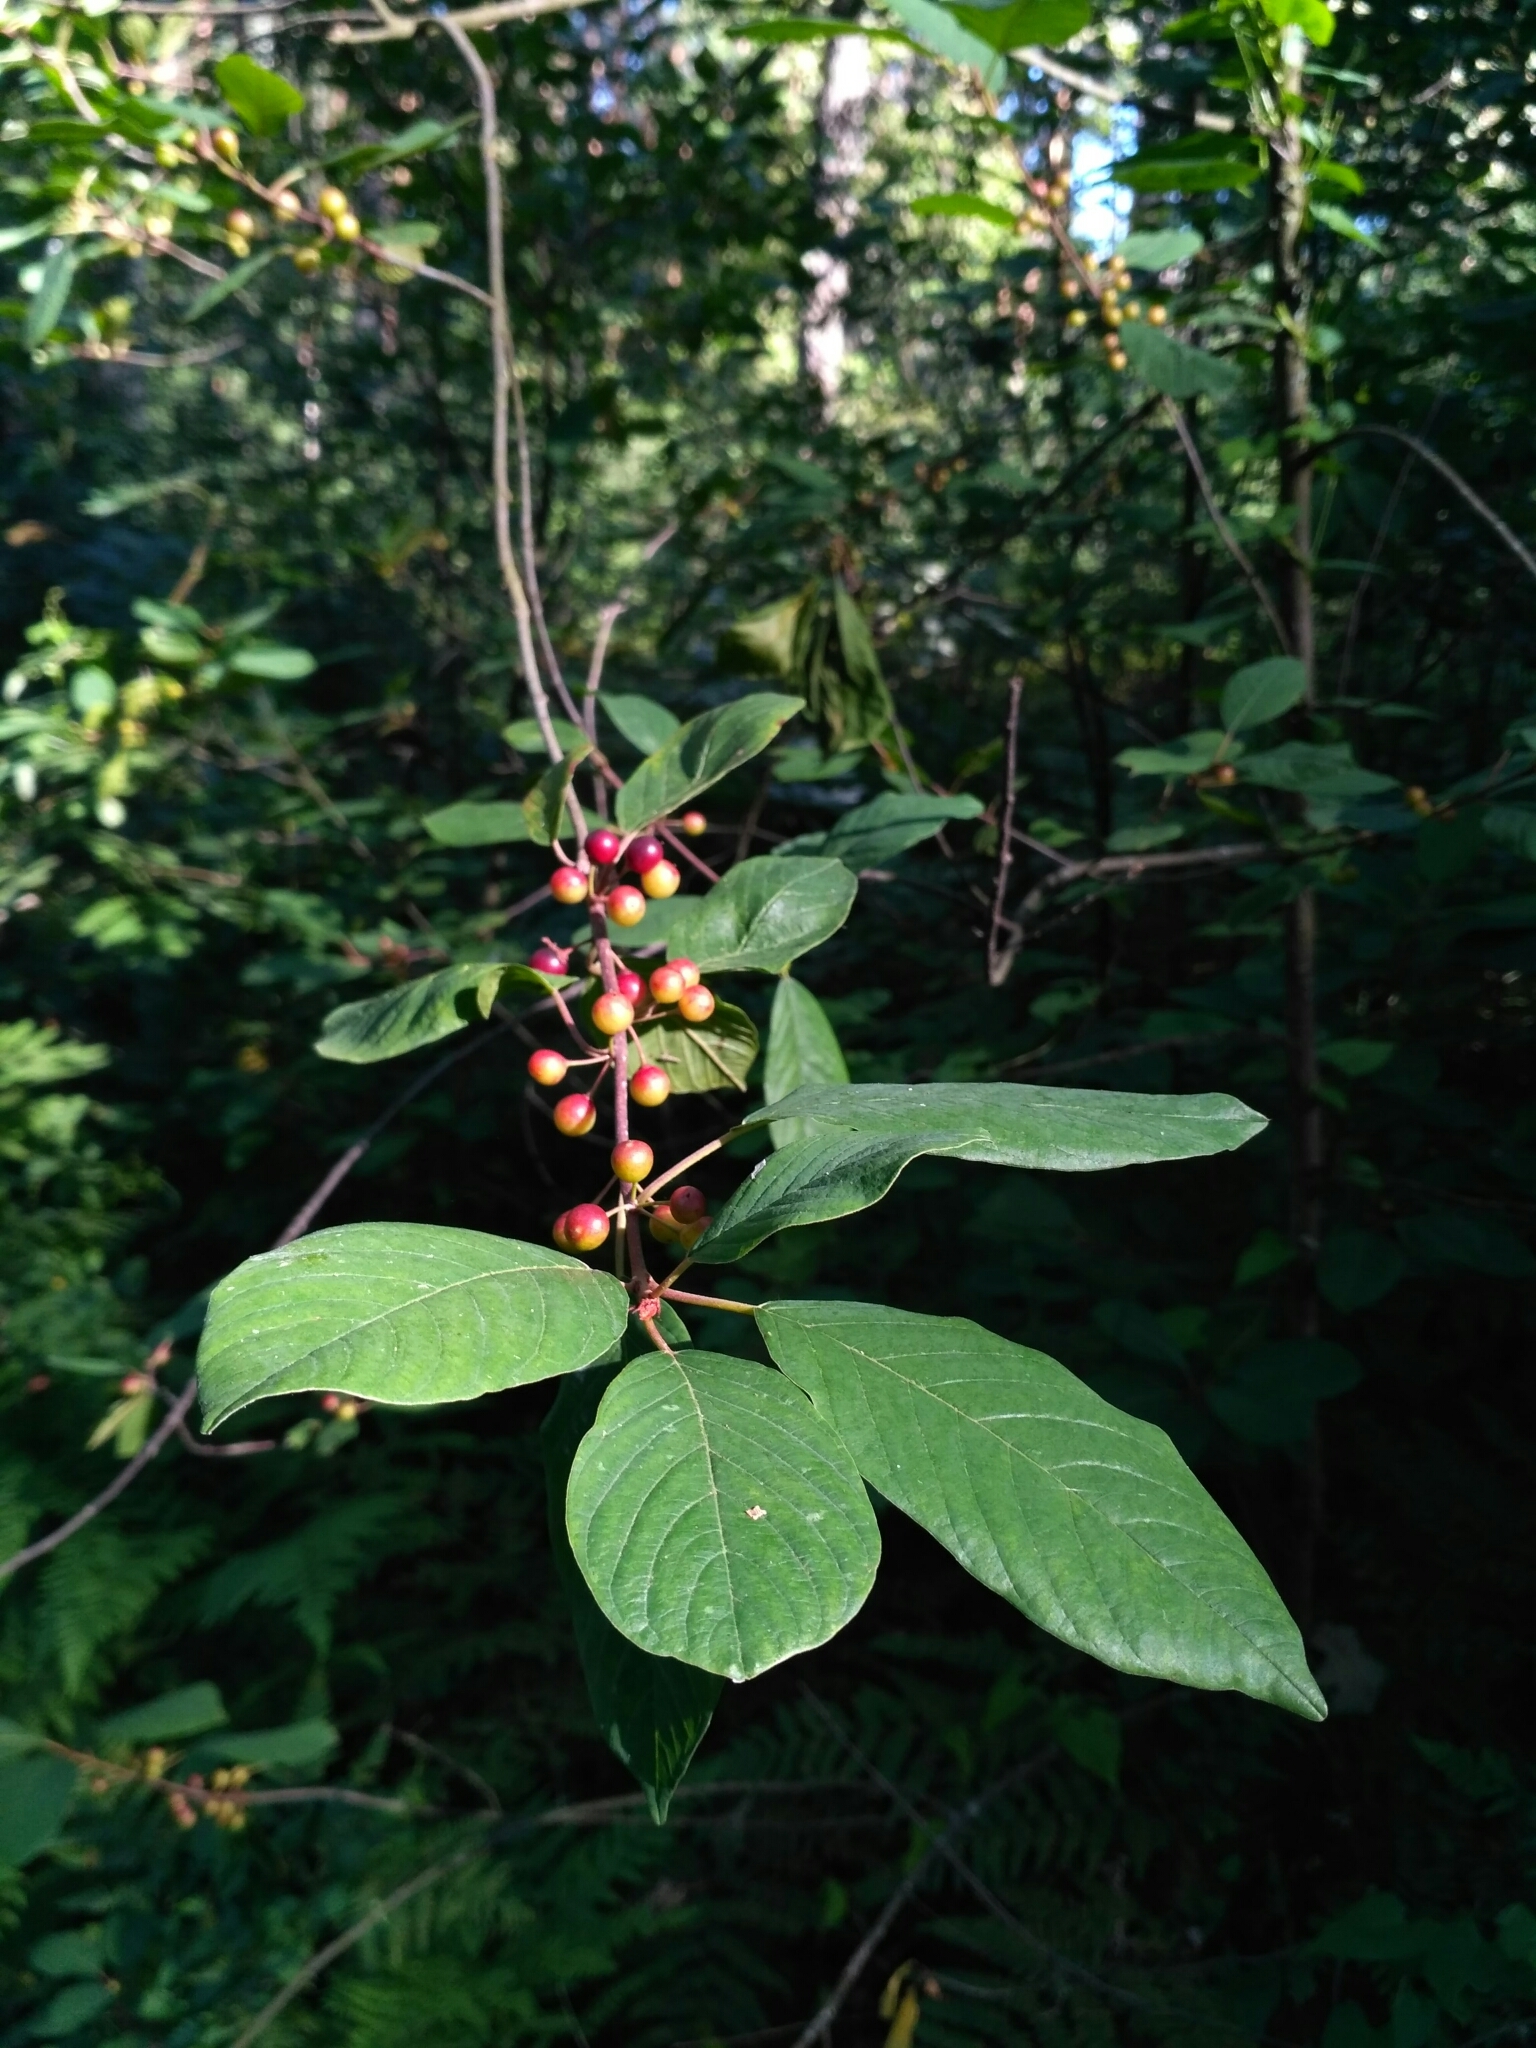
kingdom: Plantae
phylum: Tracheophyta
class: Magnoliopsida
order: Rosales
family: Rhamnaceae
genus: Frangula
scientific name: Frangula alnus
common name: Alder buckthorn
